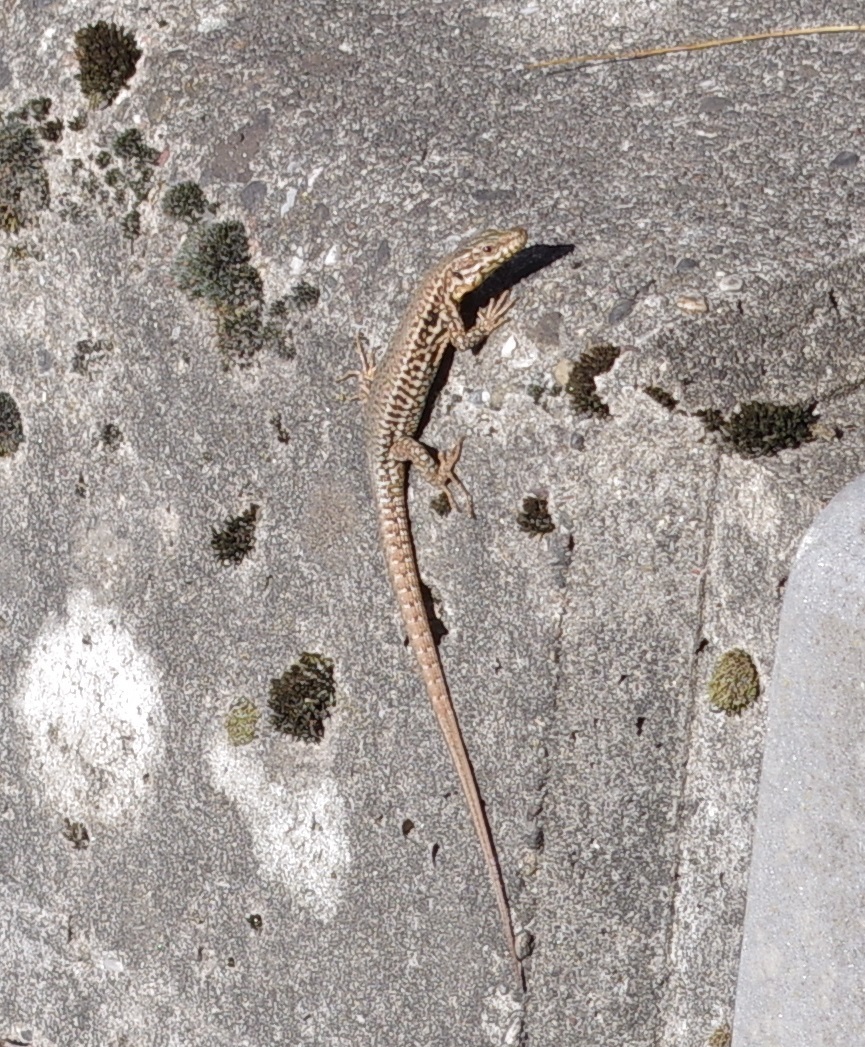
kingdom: Animalia
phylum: Chordata
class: Squamata
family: Lacertidae
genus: Podarcis
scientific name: Podarcis muralis
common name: Common wall lizard
